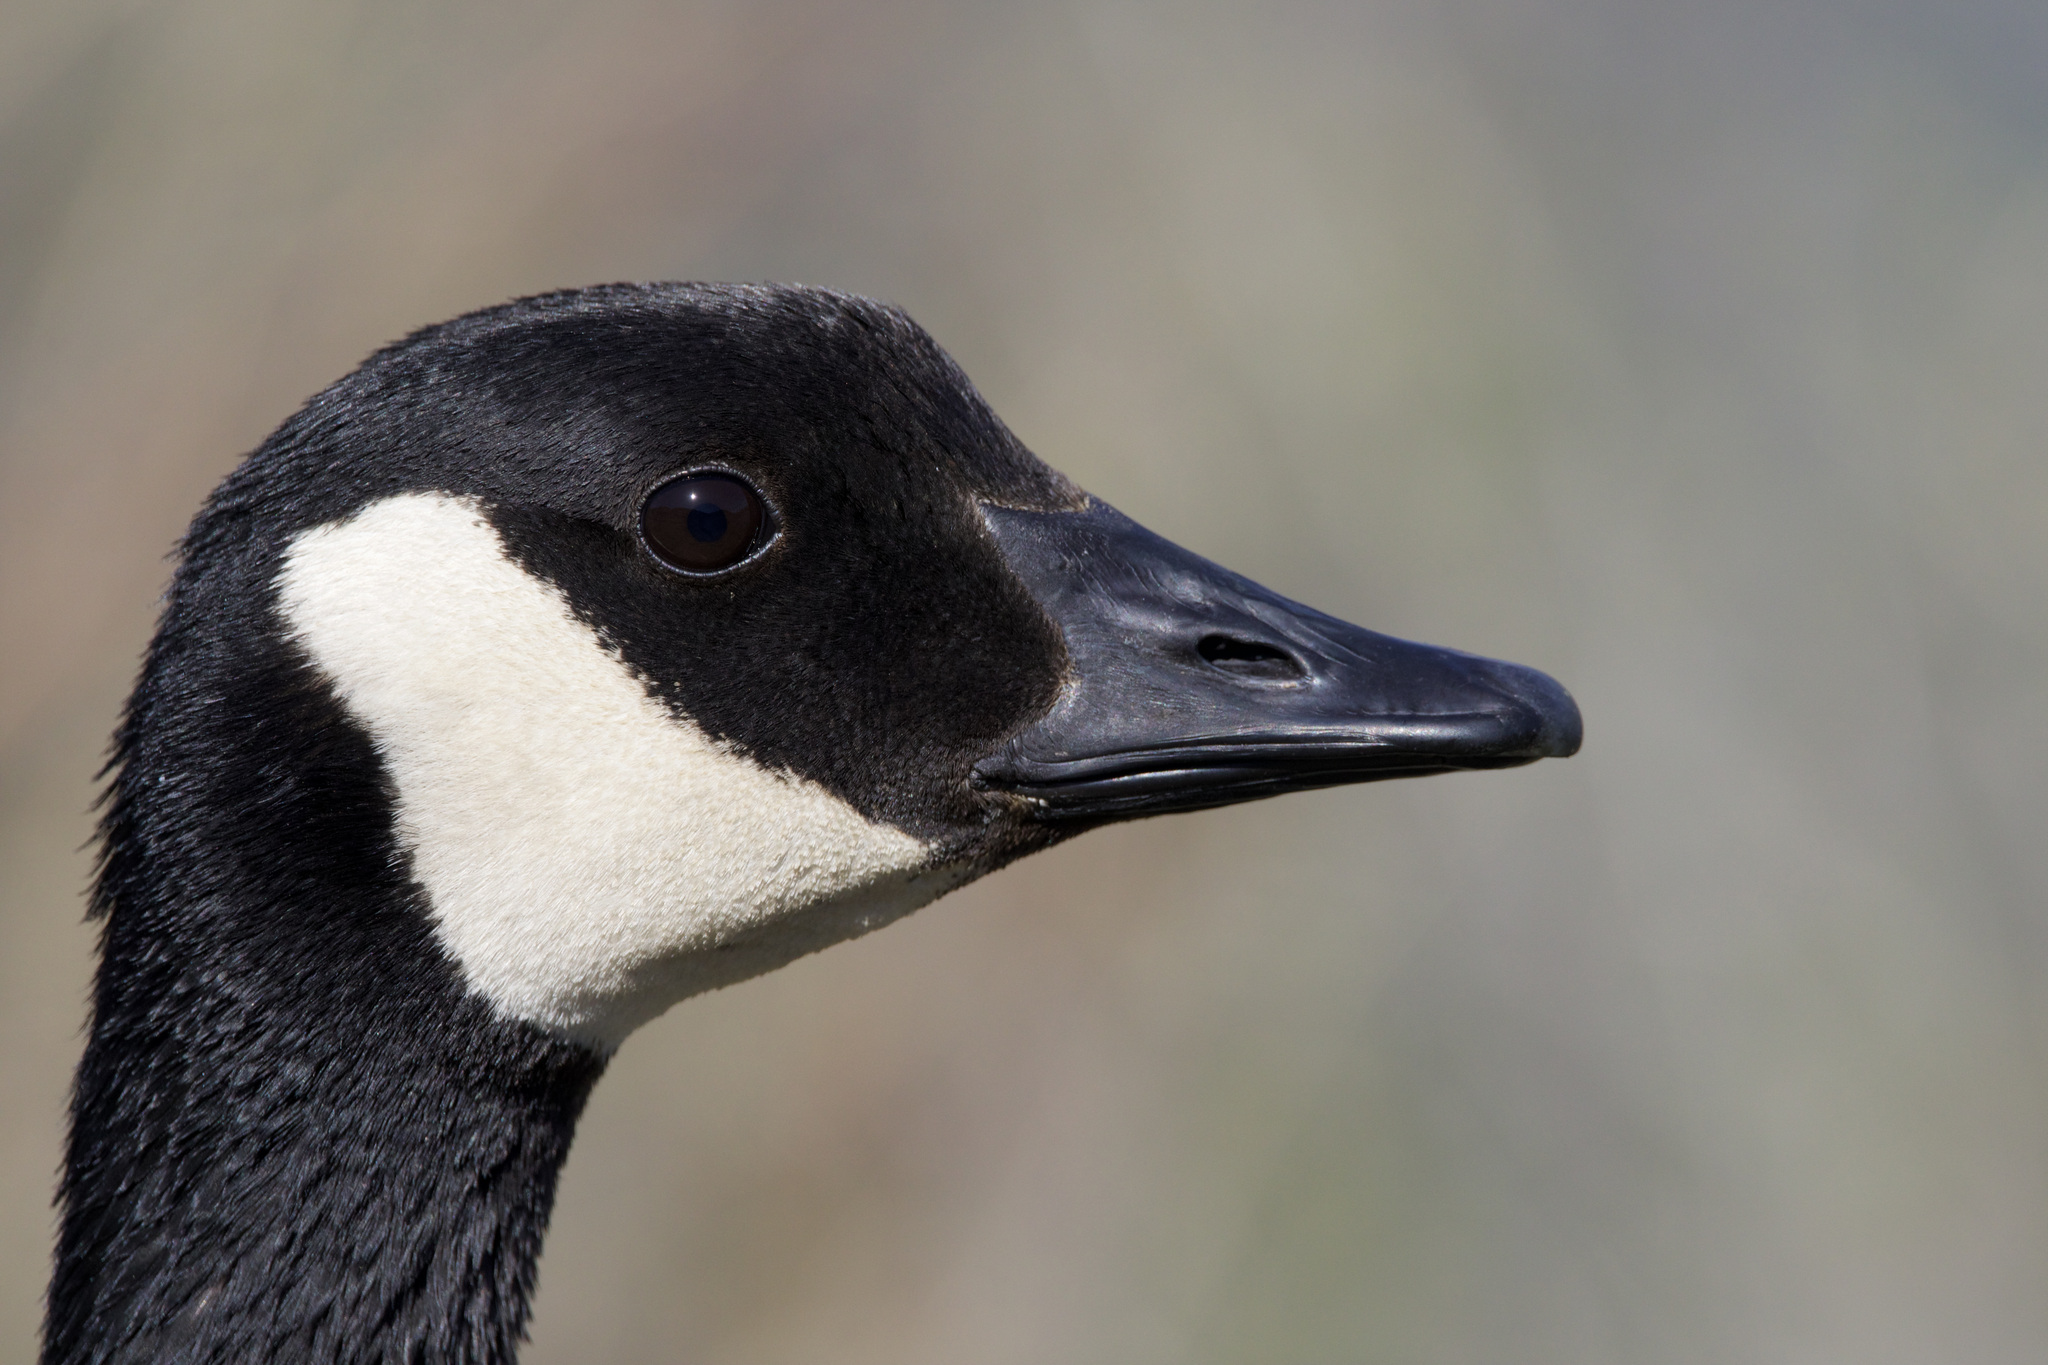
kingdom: Animalia
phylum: Chordata
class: Aves
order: Anseriformes
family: Anatidae
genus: Branta
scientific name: Branta canadensis
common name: Canada goose
